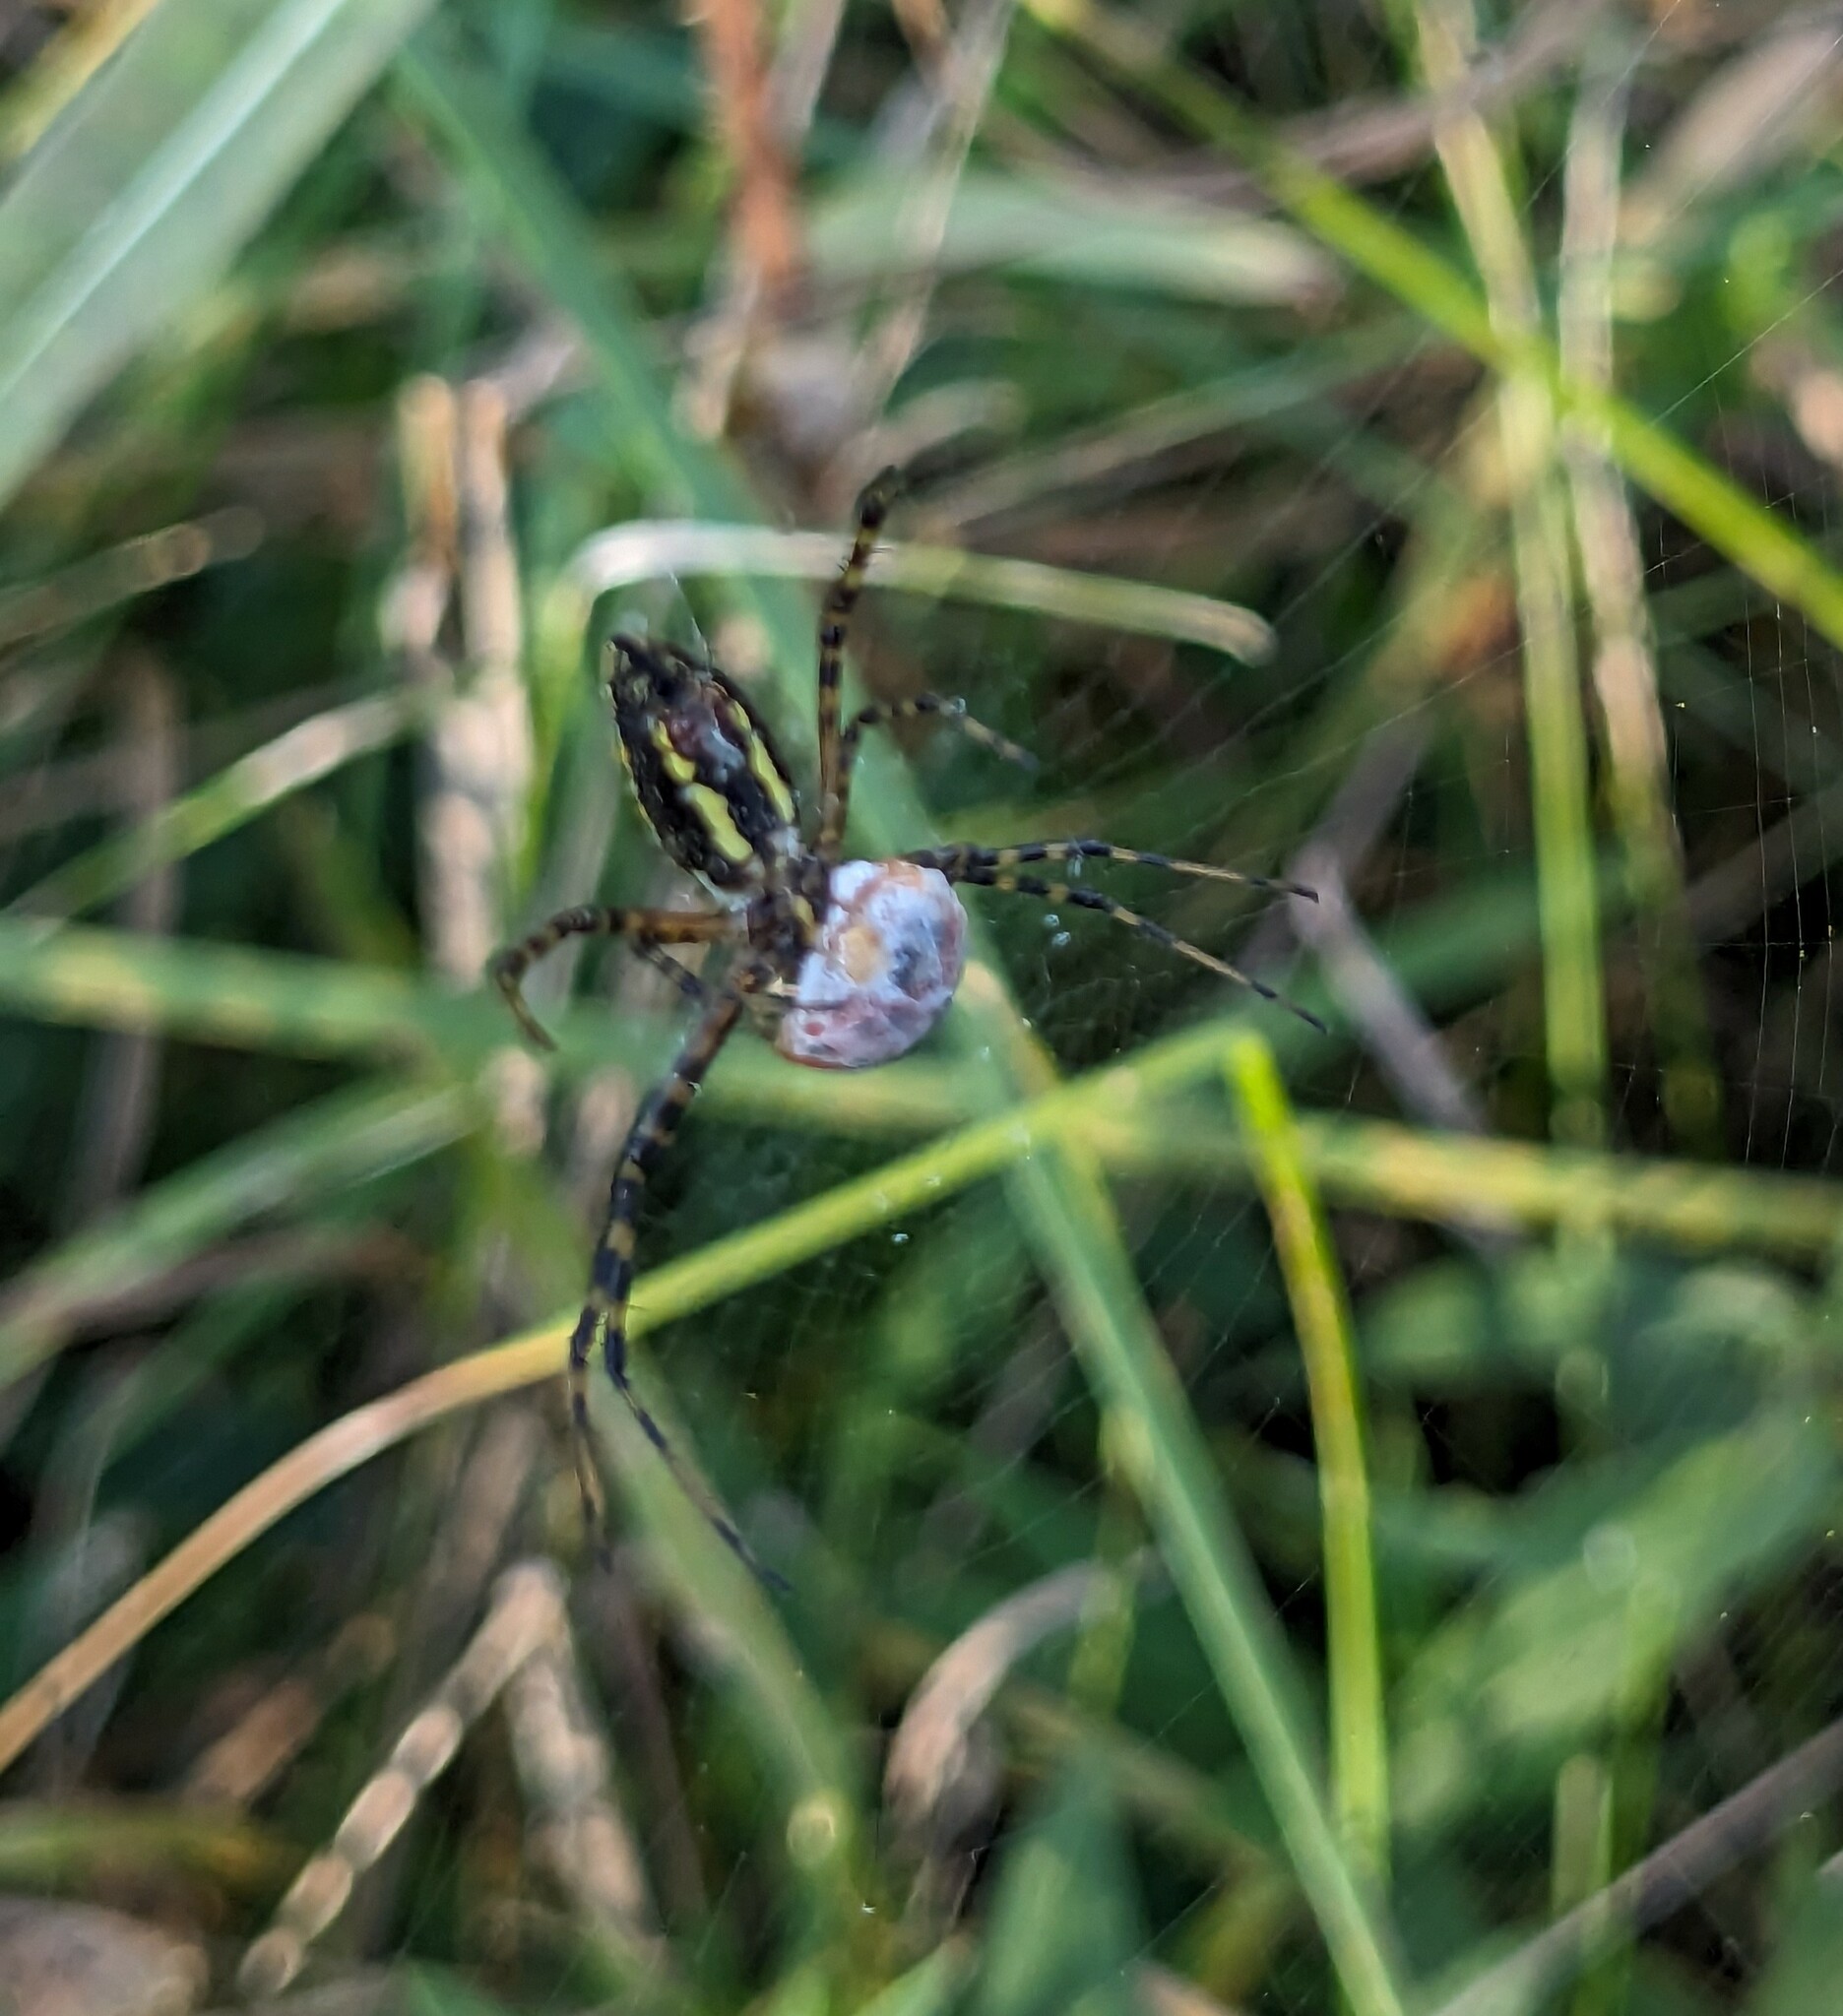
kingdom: Animalia
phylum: Arthropoda
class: Arachnida
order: Araneae
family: Araneidae
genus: Argiope
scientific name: Argiope trifasciata
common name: Banded garden spider
